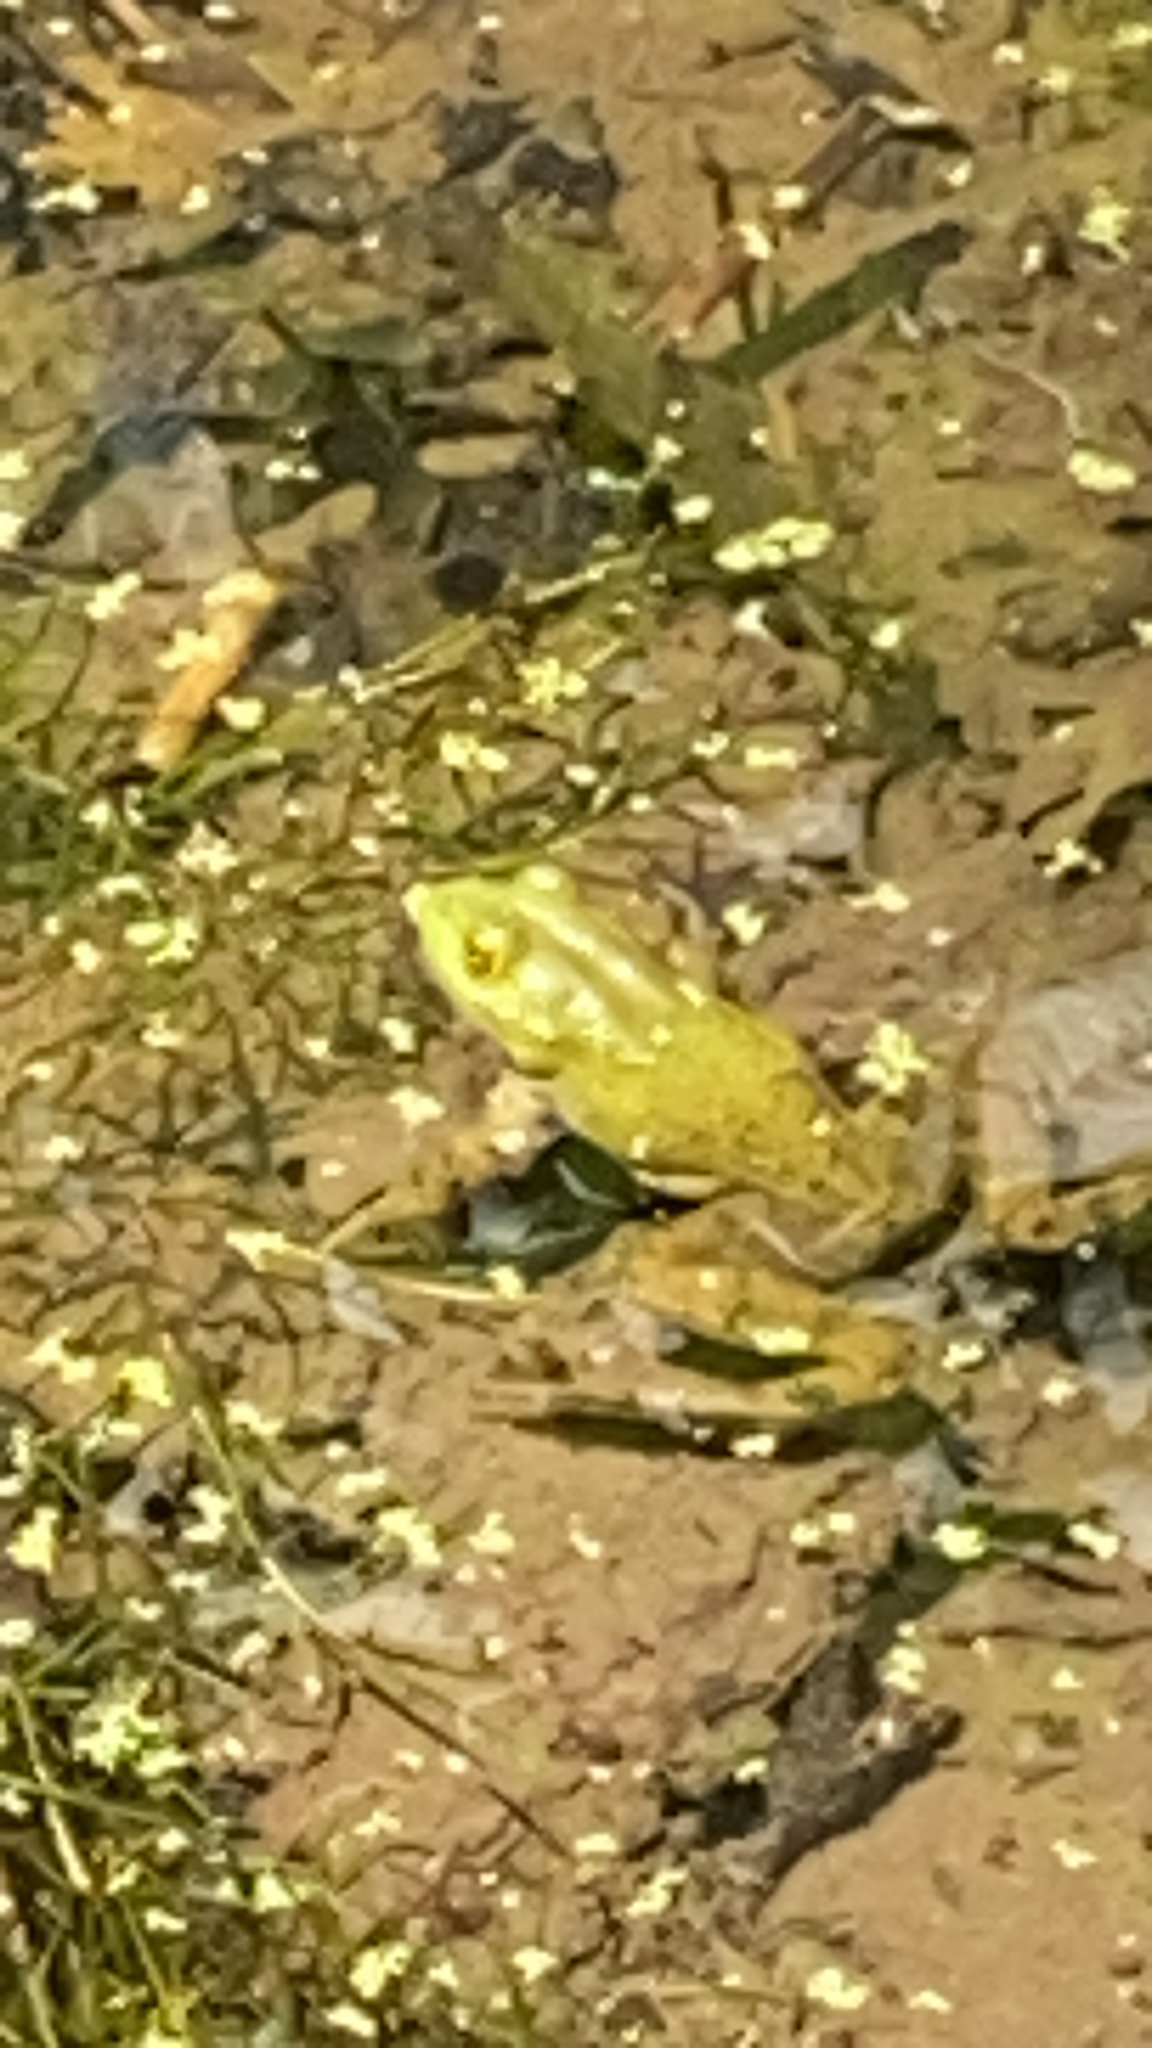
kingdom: Animalia
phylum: Chordata
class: Amphibia
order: Anura
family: Ranidae
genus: Lithobates
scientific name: Lithobates catesbeianus
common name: American bullfrog
